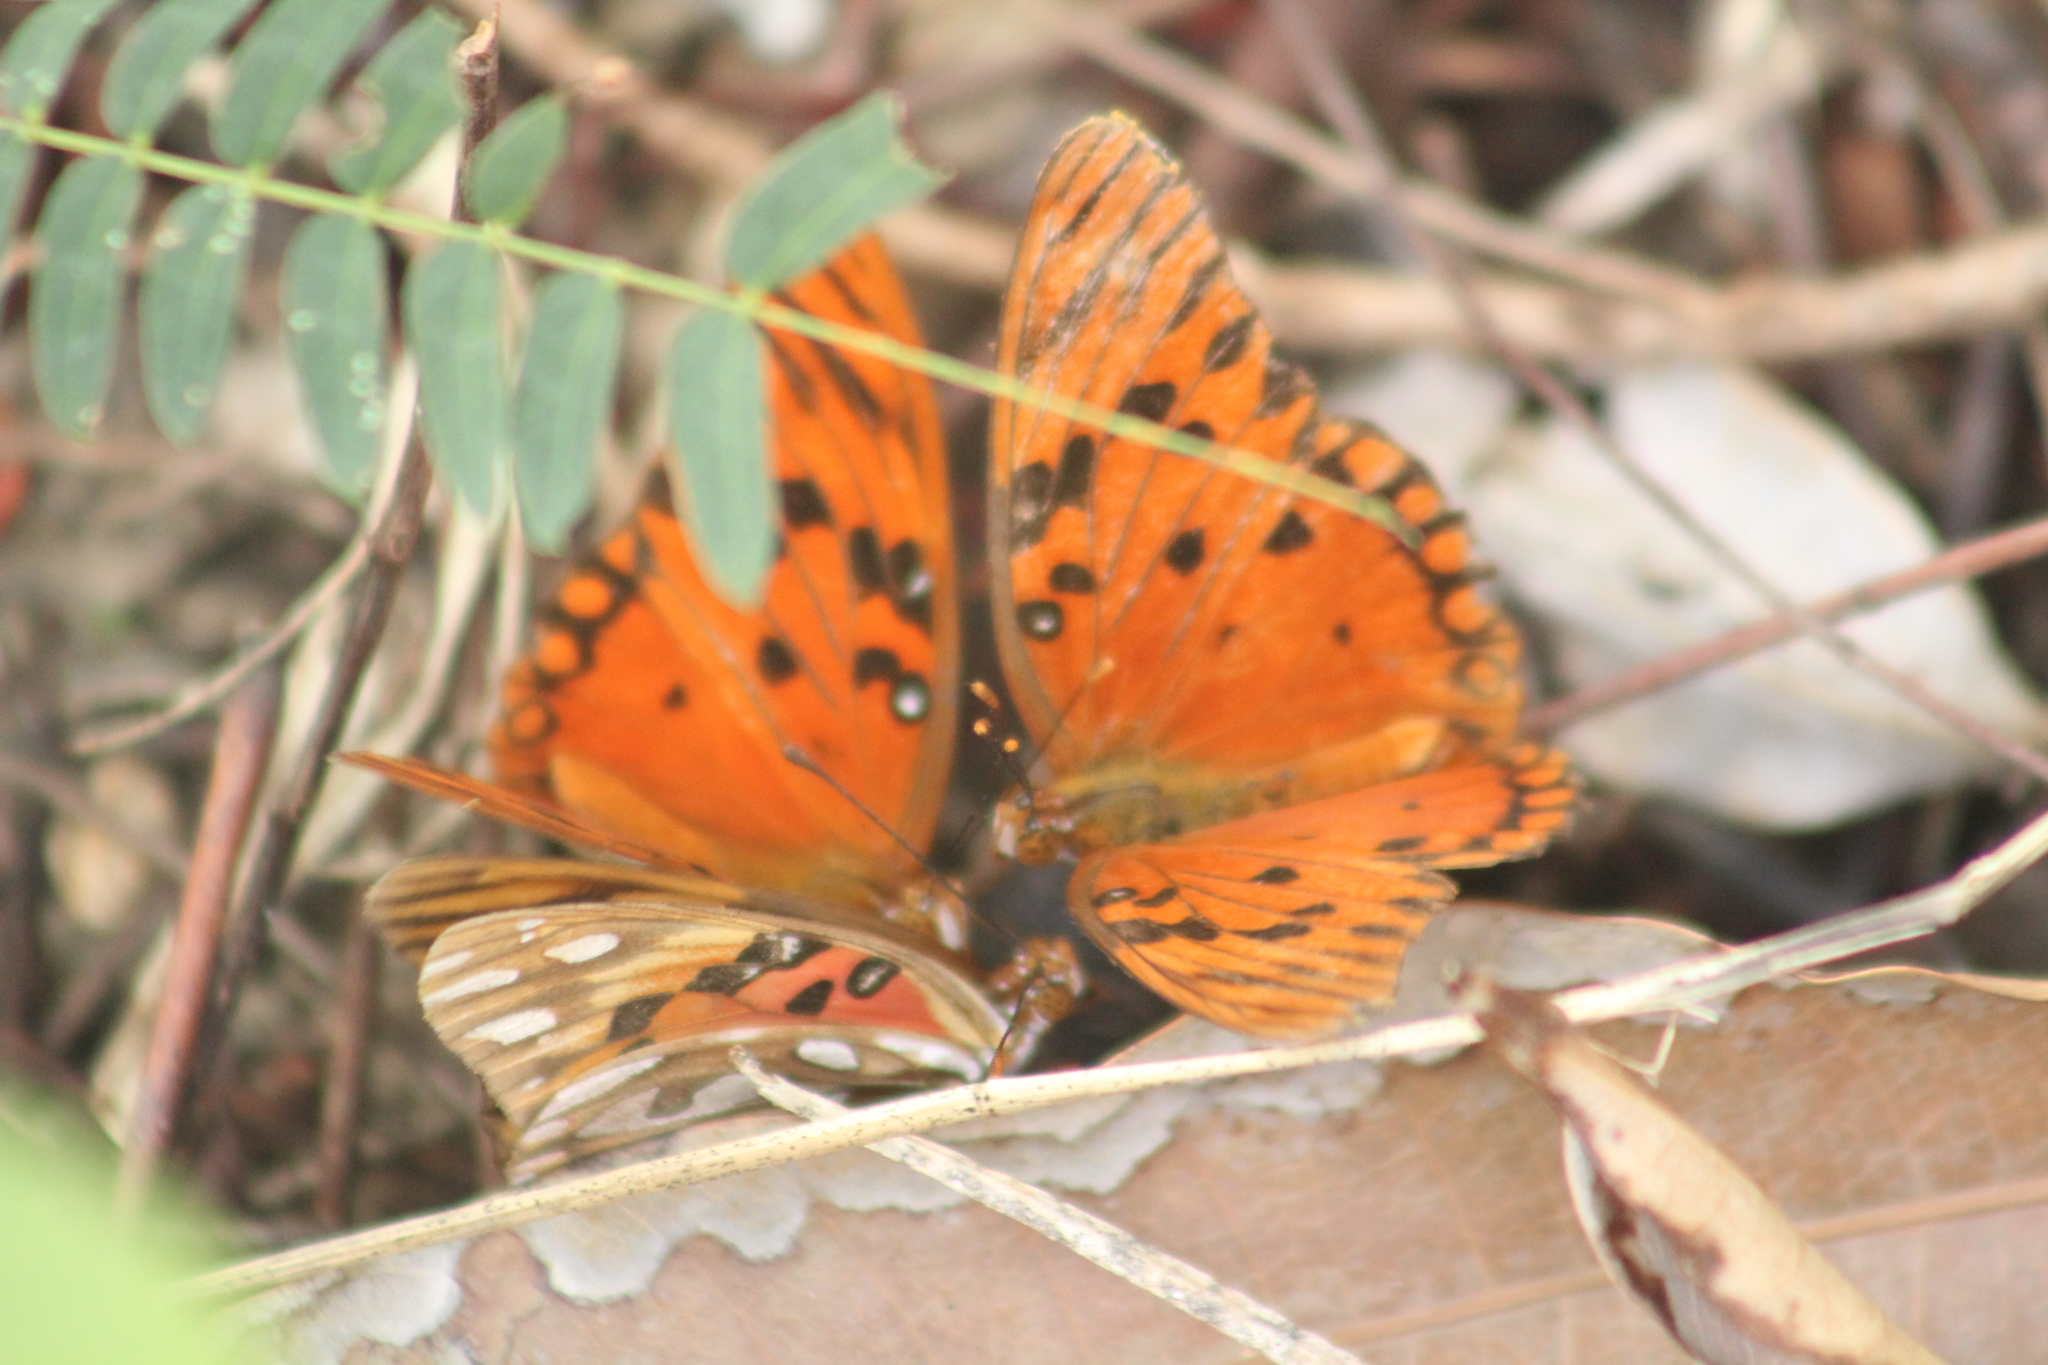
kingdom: Animalia
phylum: Arthropoda
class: Insecta
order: Lepidoptera
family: Nymphalidae
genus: Dione
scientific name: Dione vanillae
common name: Gulf fritillary
